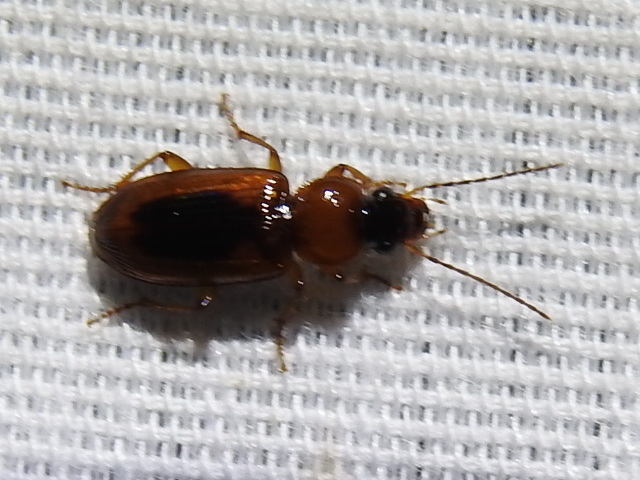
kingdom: Animalia
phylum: Arthropoda
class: Insecta
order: Coleoptera
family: Carabidae
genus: Stenolophus
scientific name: Stenolophus lecontei
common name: Leconte's seedcorn beetle
